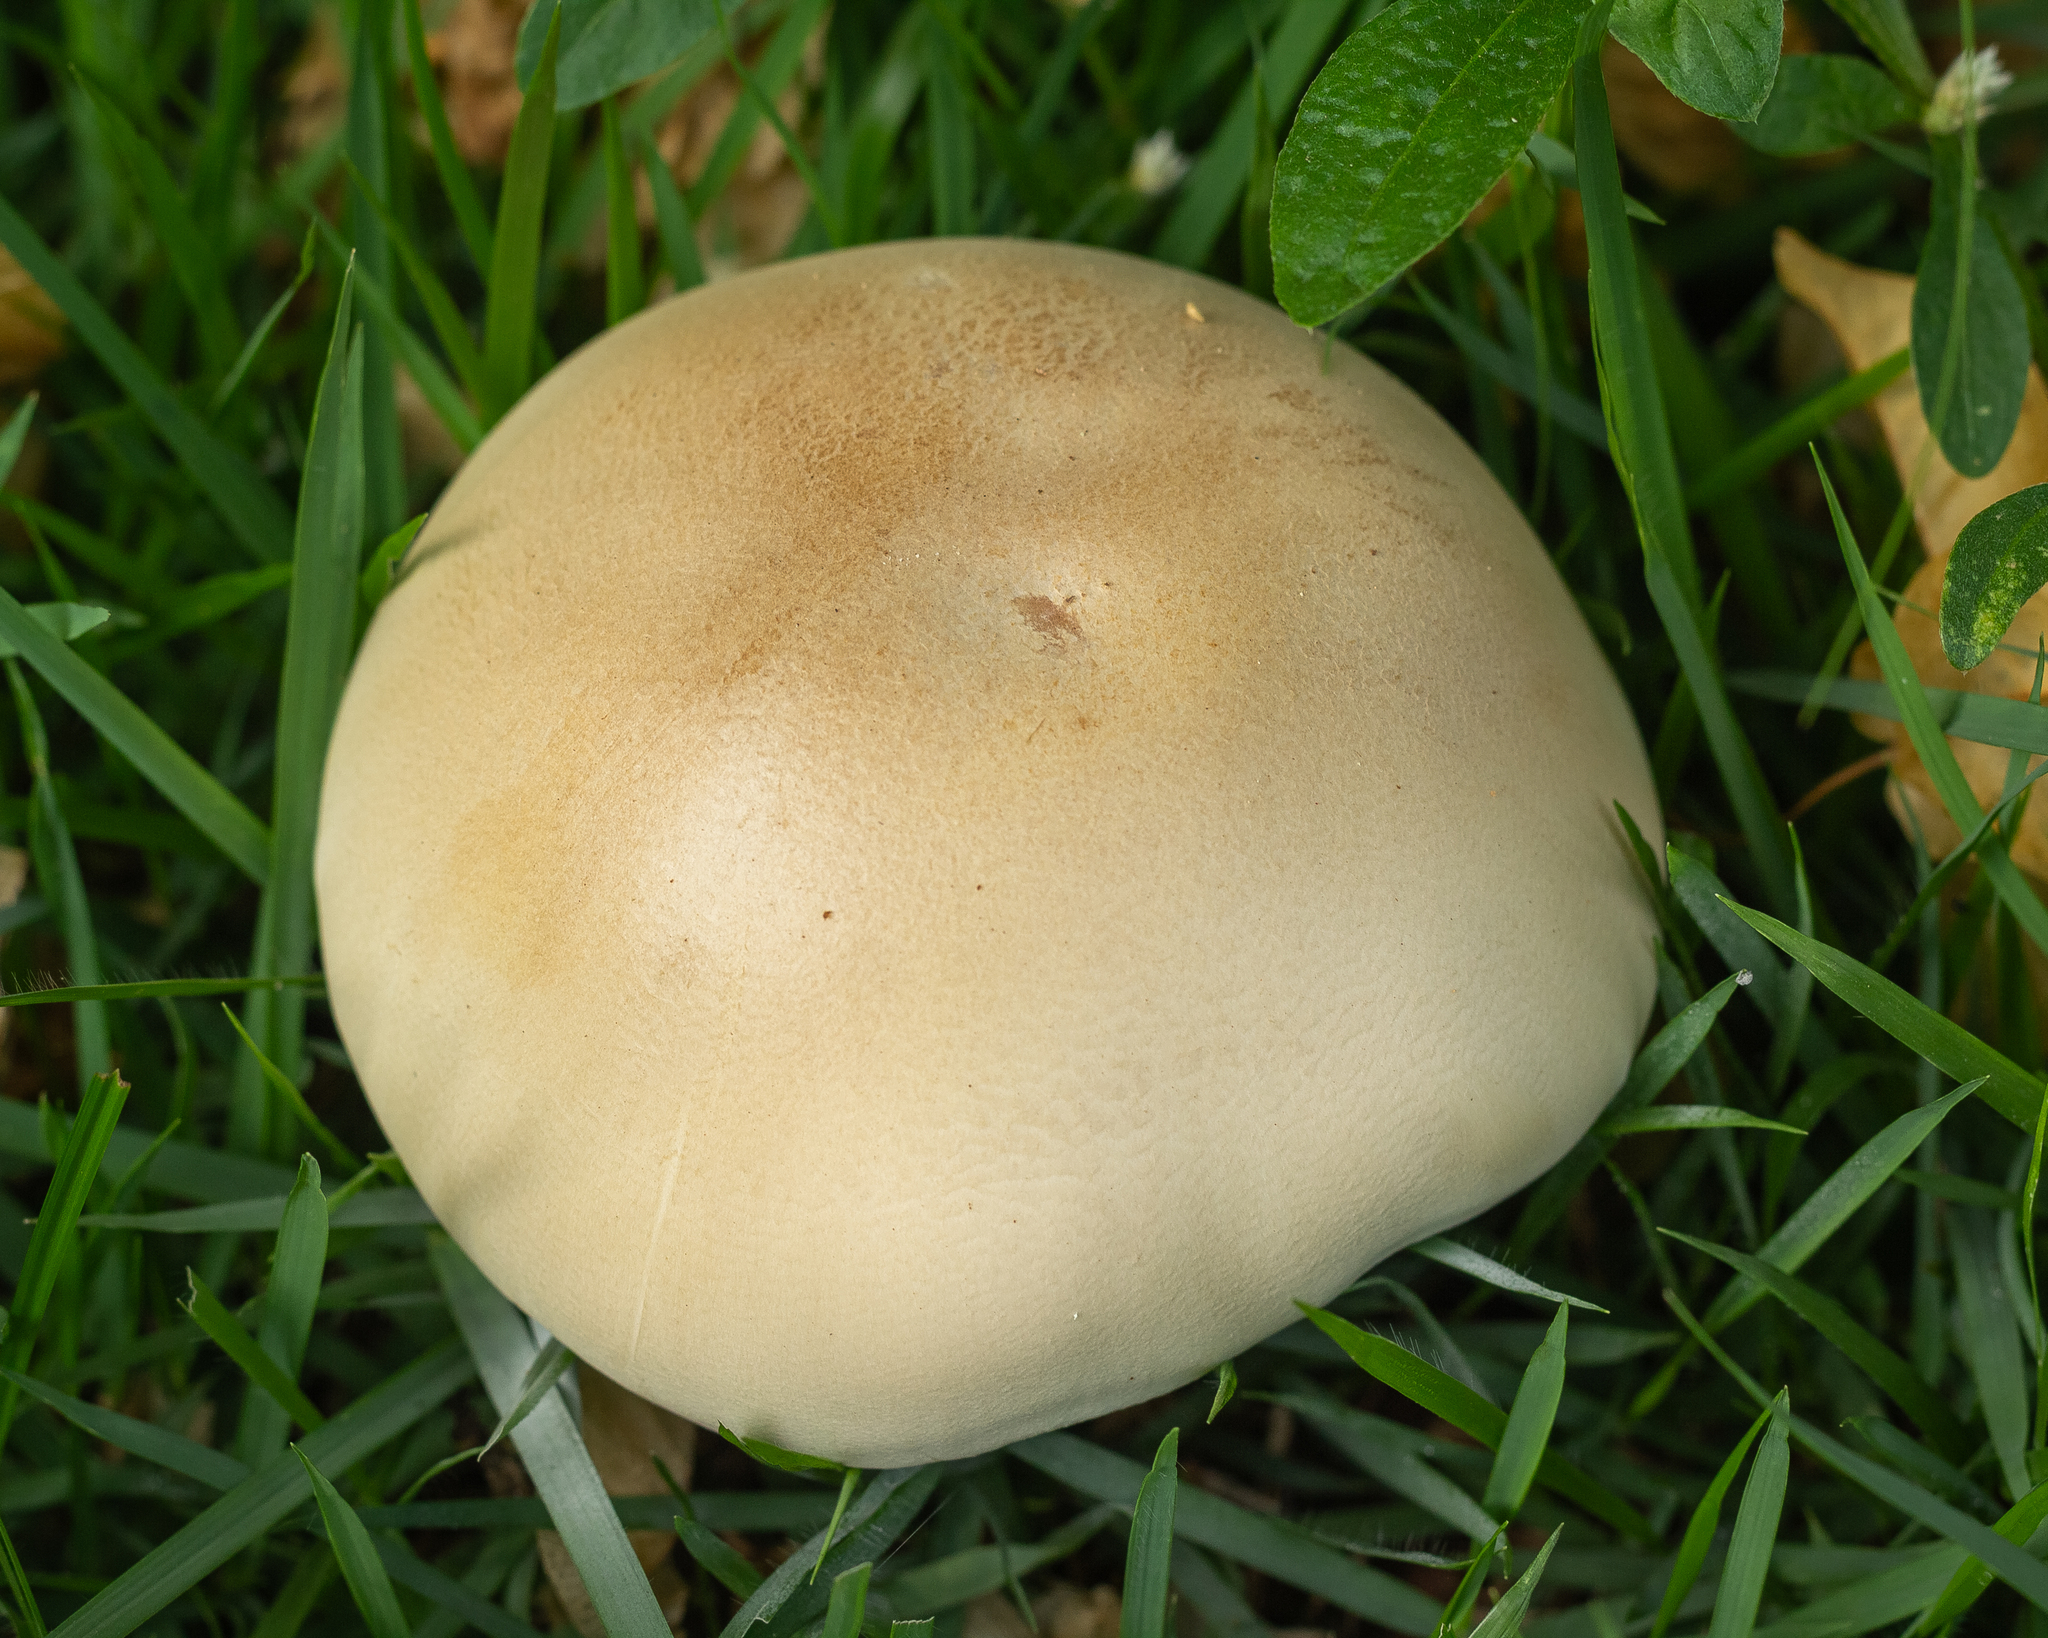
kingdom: Fungi
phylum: Basidiomycota
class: Agaricomycetes
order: Agaricales
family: Callistosporiaceae
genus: Macrocybe
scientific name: Macrocybe titans
